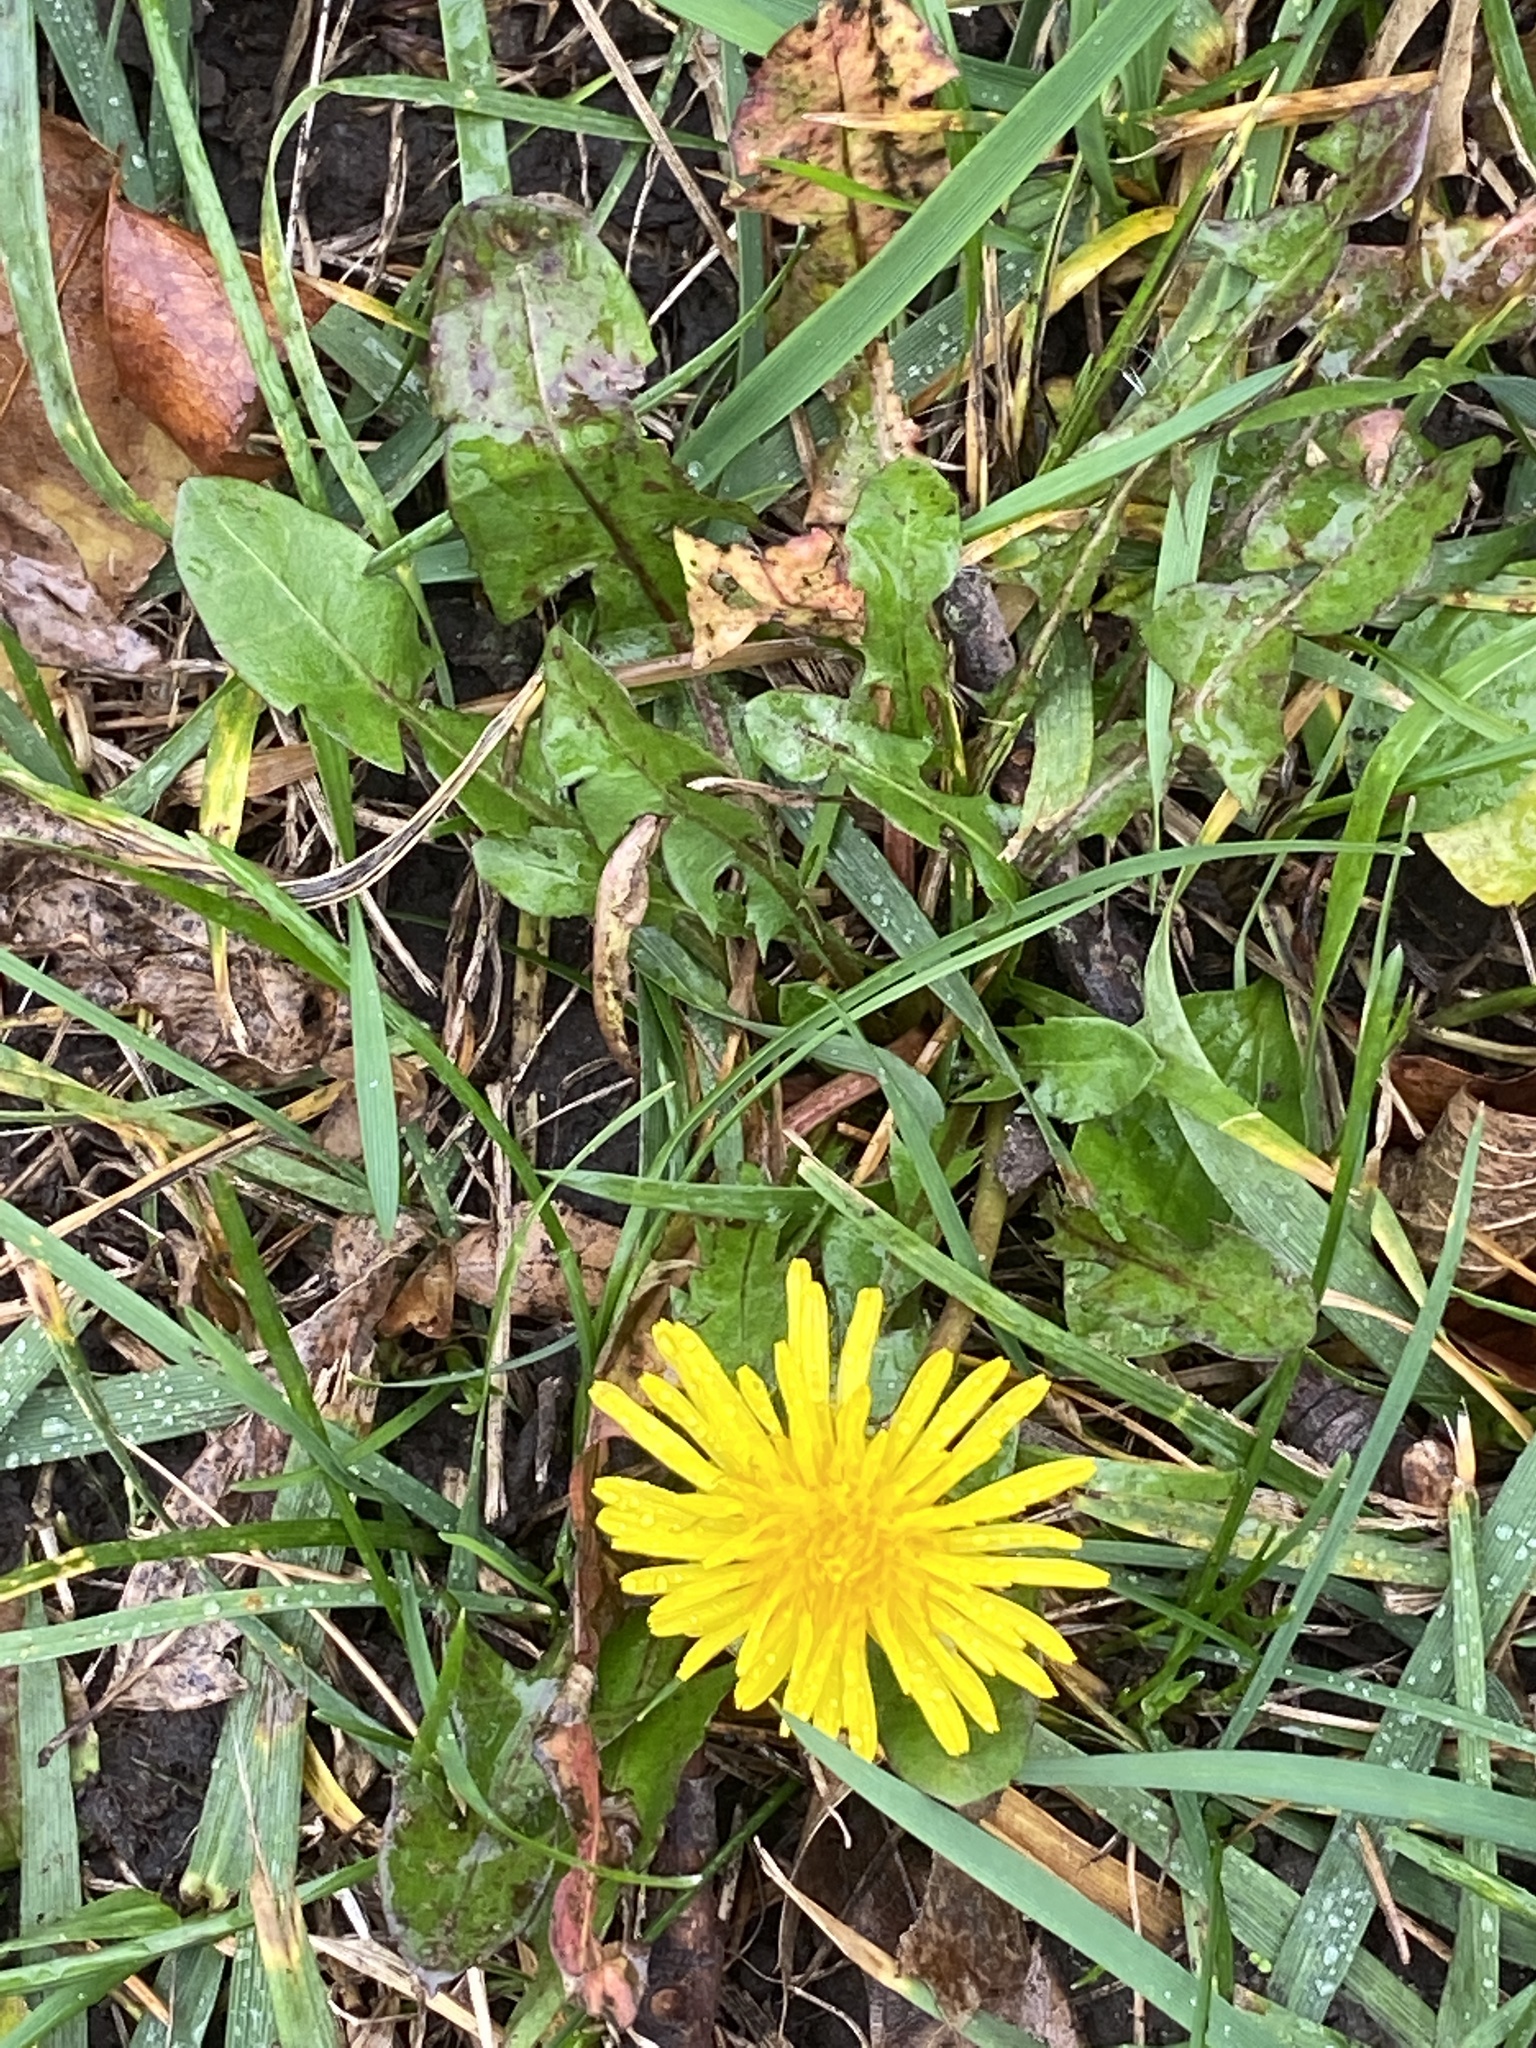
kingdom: Plantae
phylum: Tracheophyta
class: Magnoliopsida
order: Asterales
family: Asteraceae
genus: Taraxacum
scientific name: Taraxacum officinale
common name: Common dandelion
